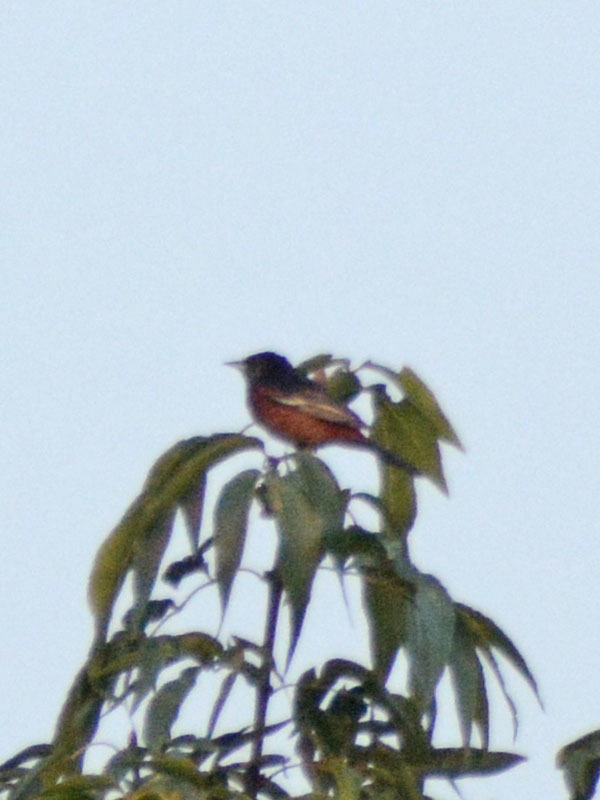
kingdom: Animalia
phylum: Chordata
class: Aves
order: Passeriformes
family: Icteridae
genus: Icterus
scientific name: Icterus spurius
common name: Orchard oriole
